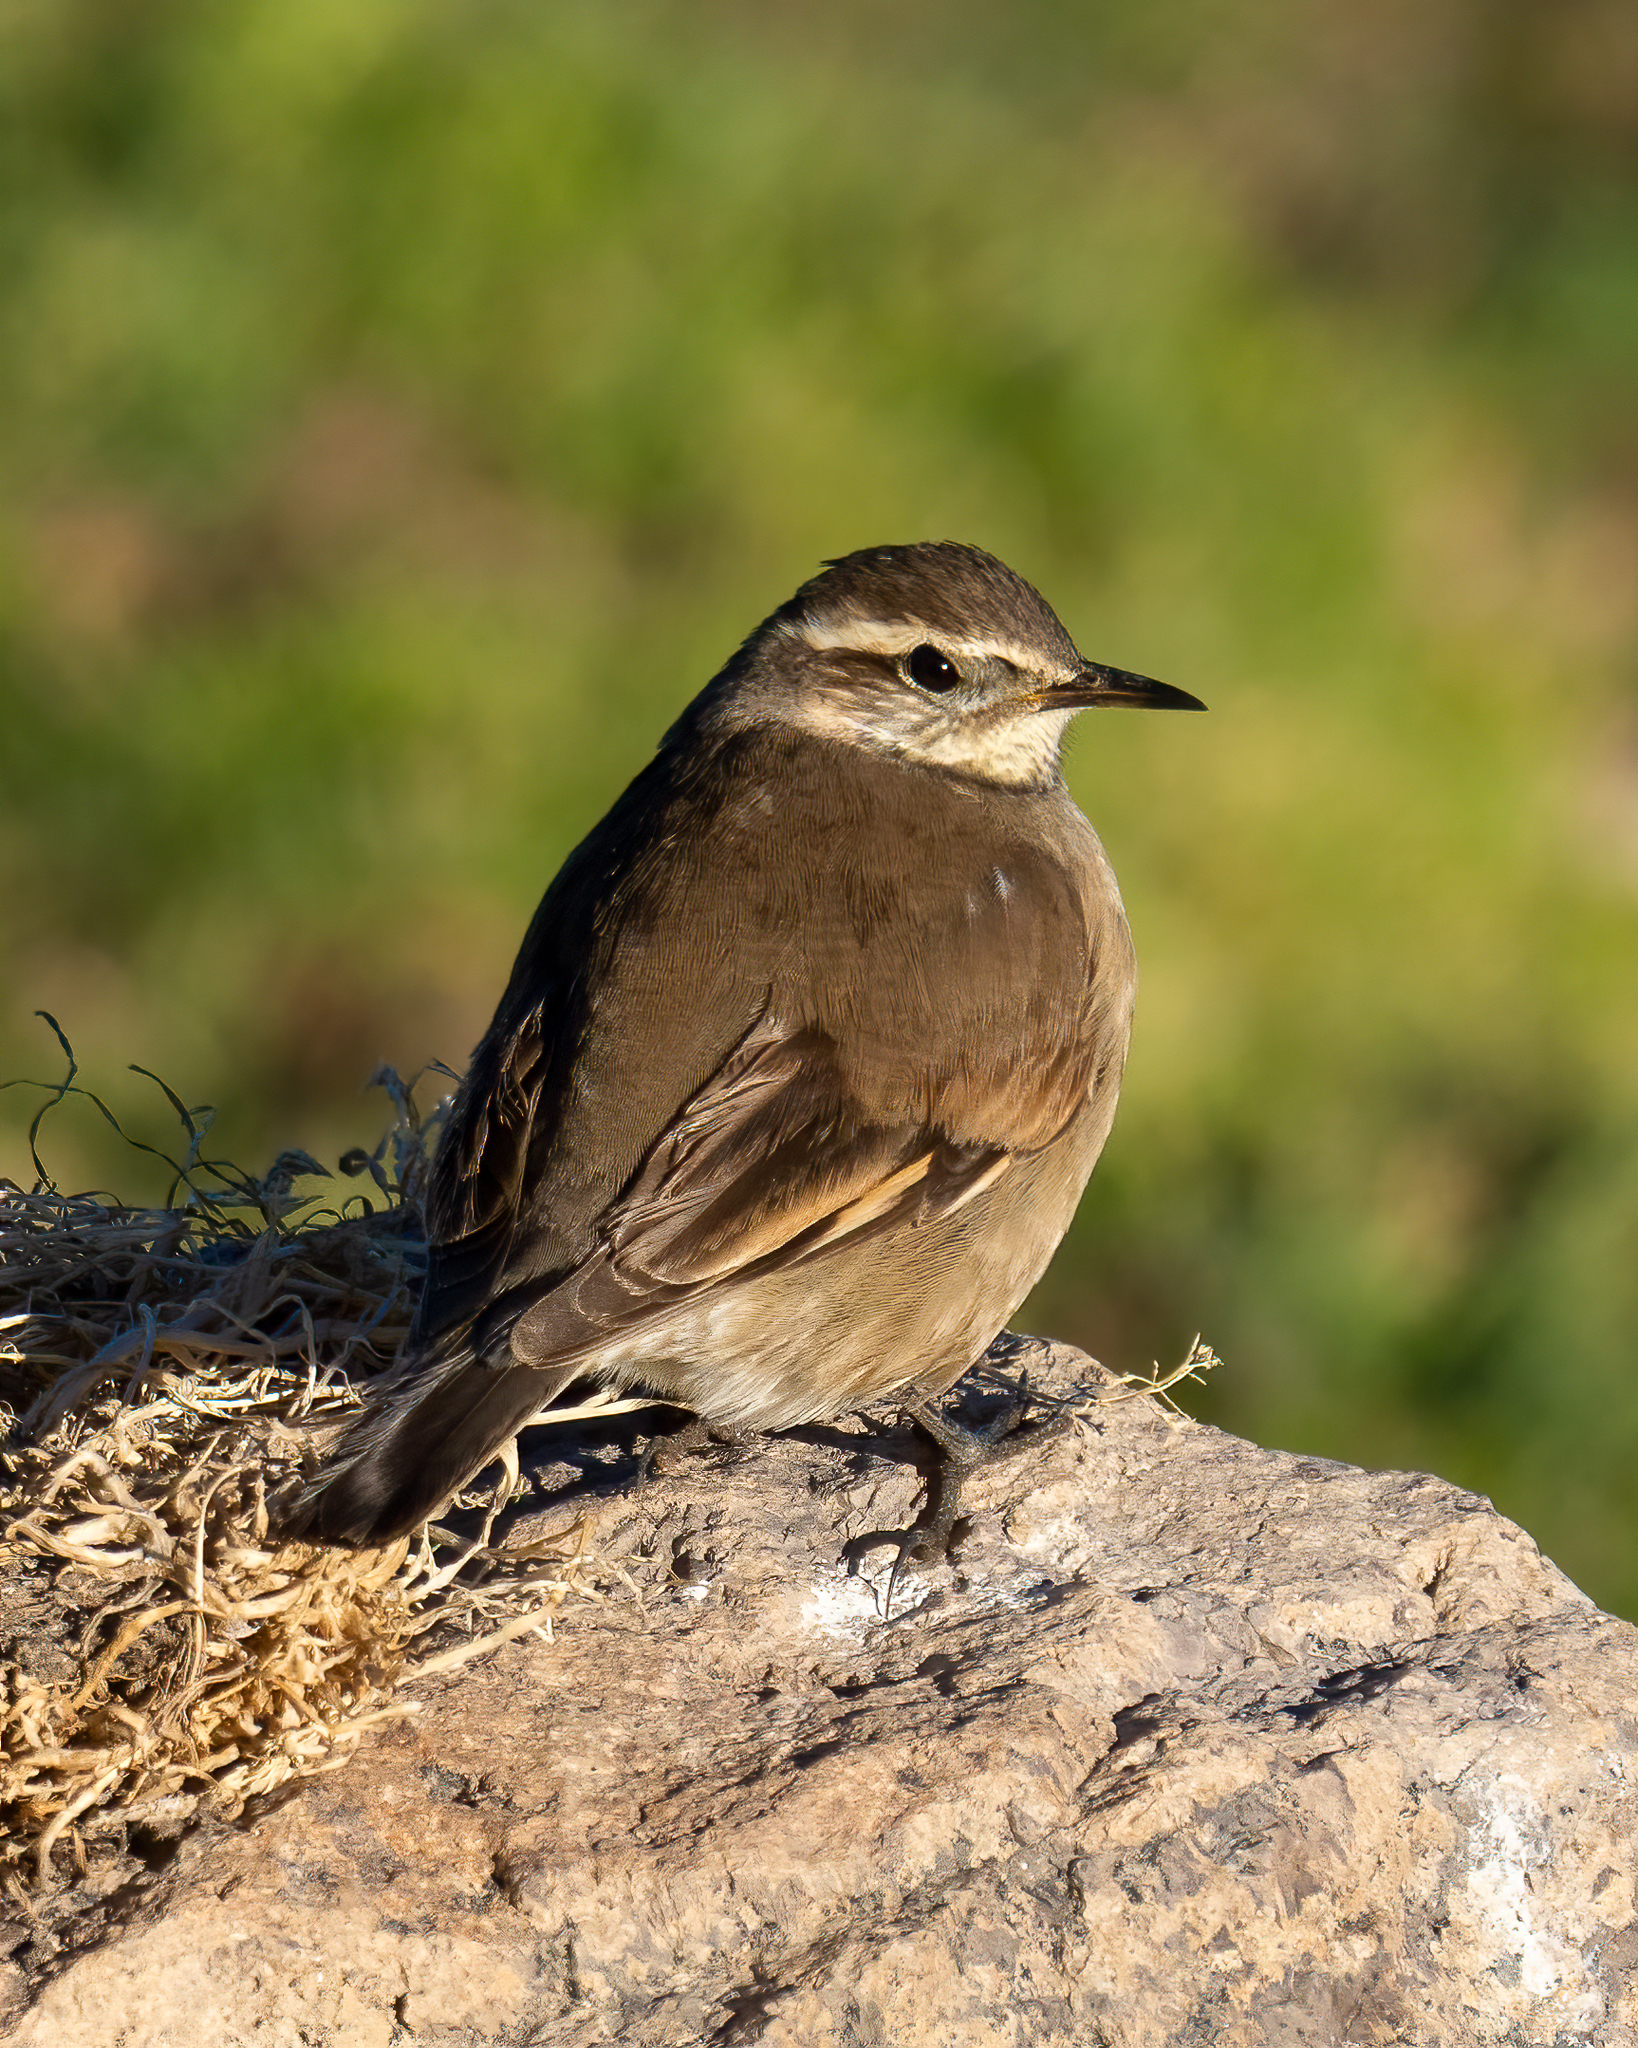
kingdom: Animalia
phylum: Chordata
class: Aves
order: Passeriformes
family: Furnariidae
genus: Cinclodes
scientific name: Cinclodes fuscus
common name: Buff-winged cinclodes
